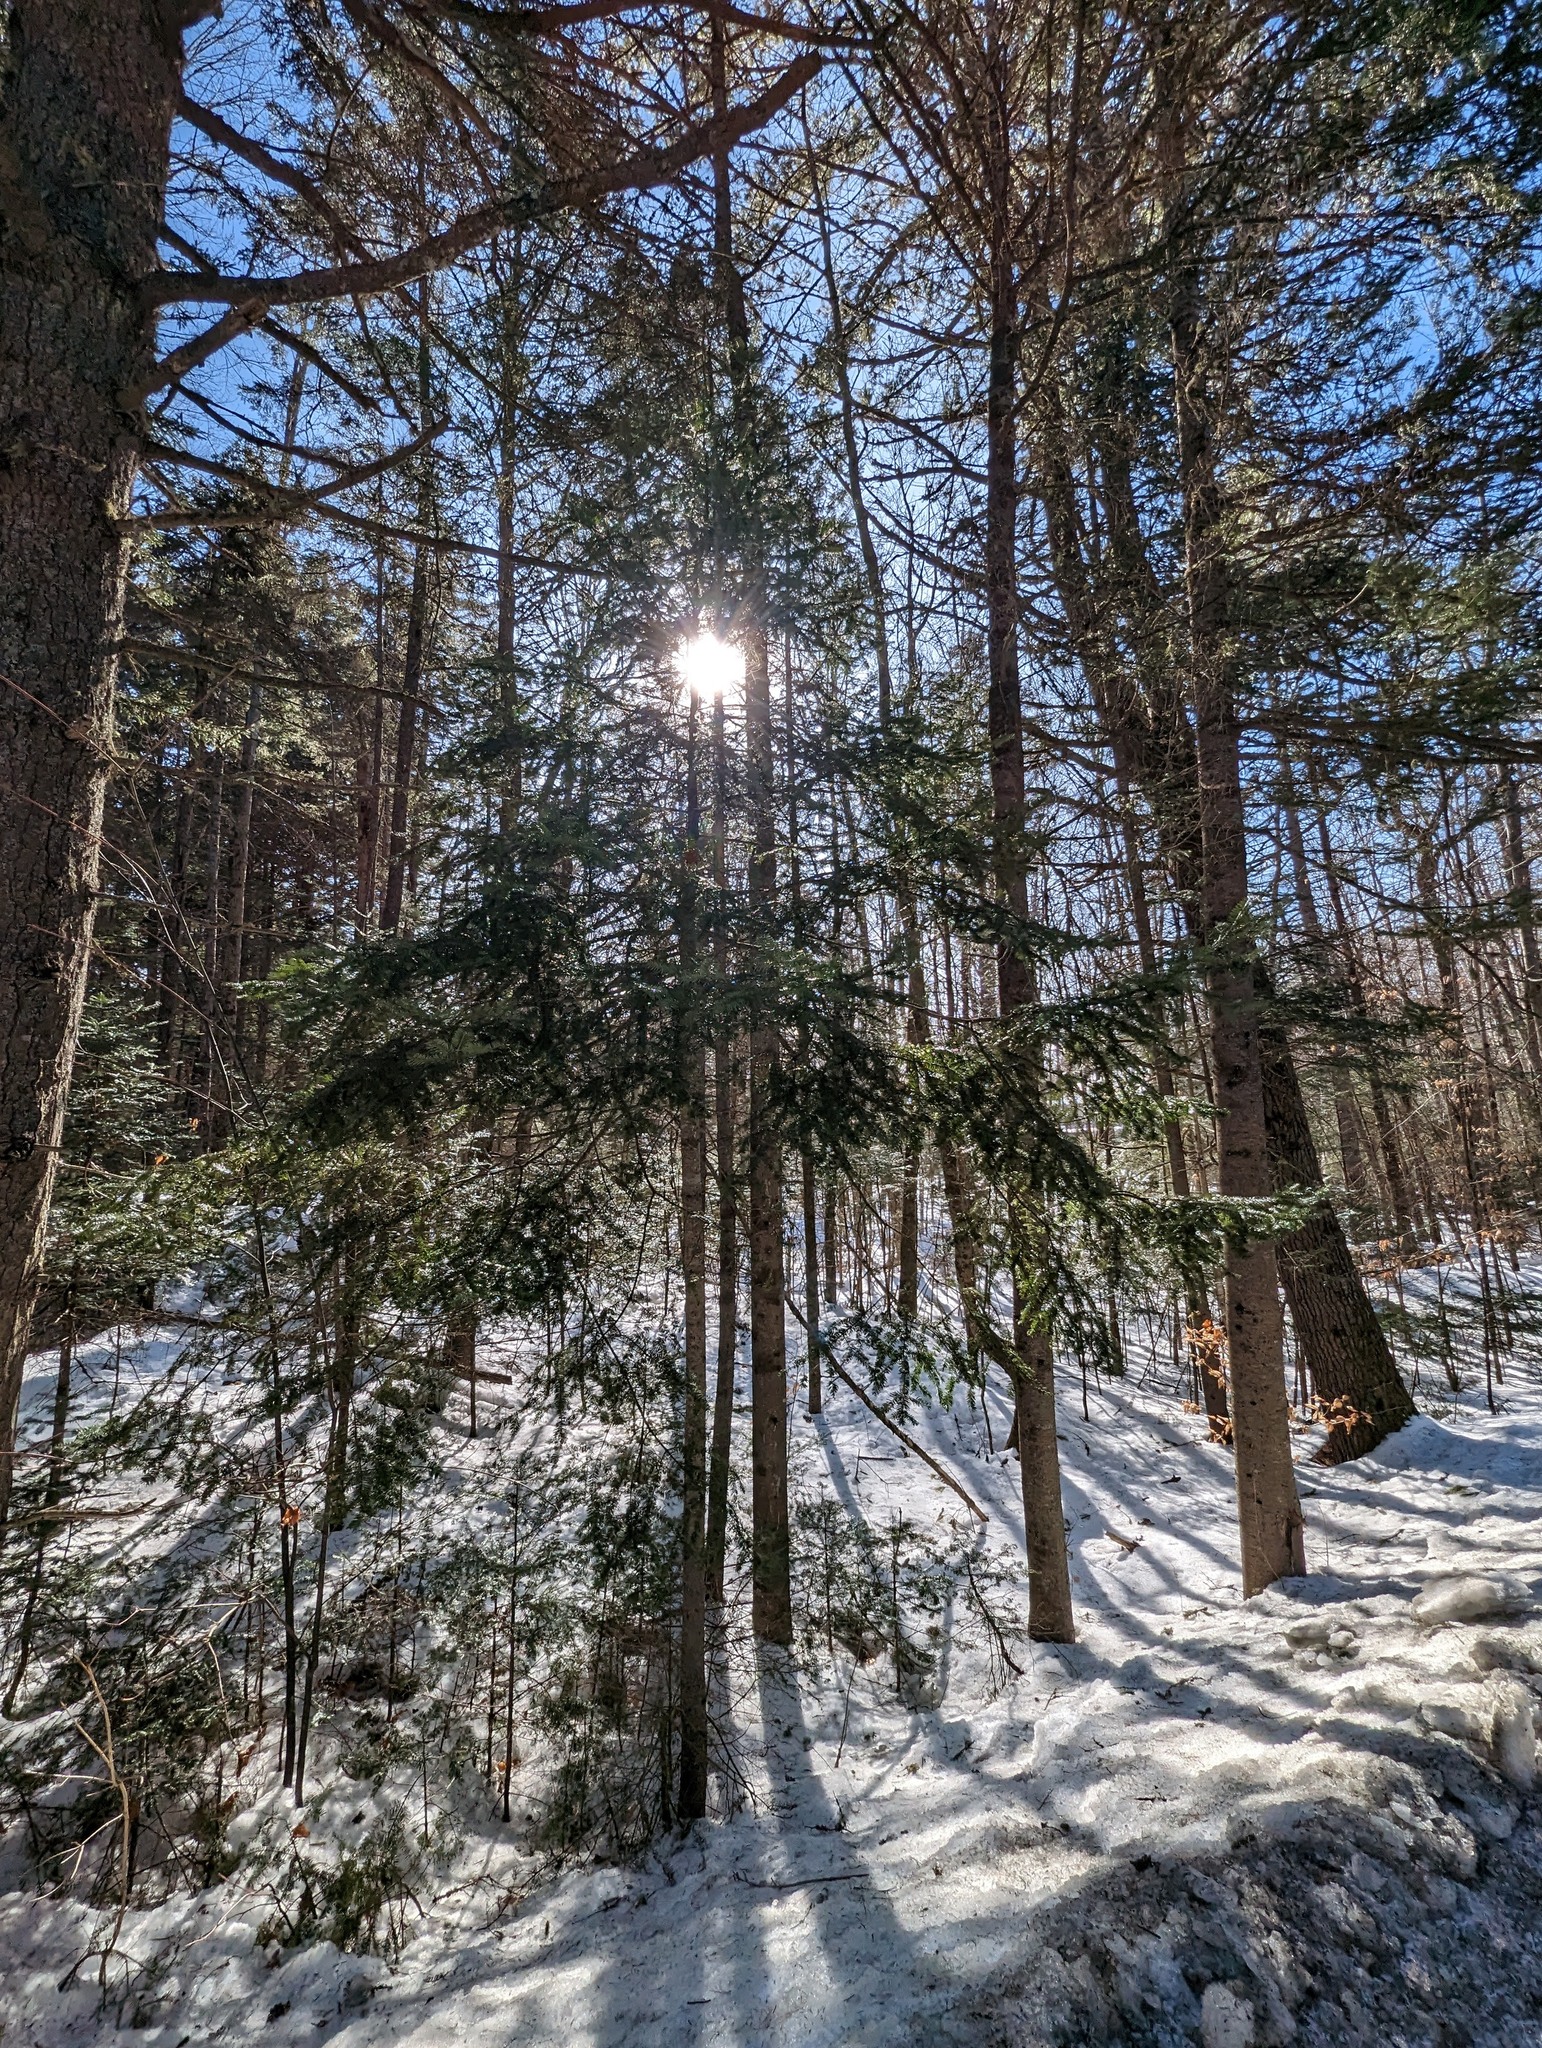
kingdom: Plantae
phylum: Tracheophyta
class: Pinopsida
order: Pinales
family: Pinaceae
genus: Tsuga
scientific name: Tsuga canadensis
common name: Eastern hemlock
